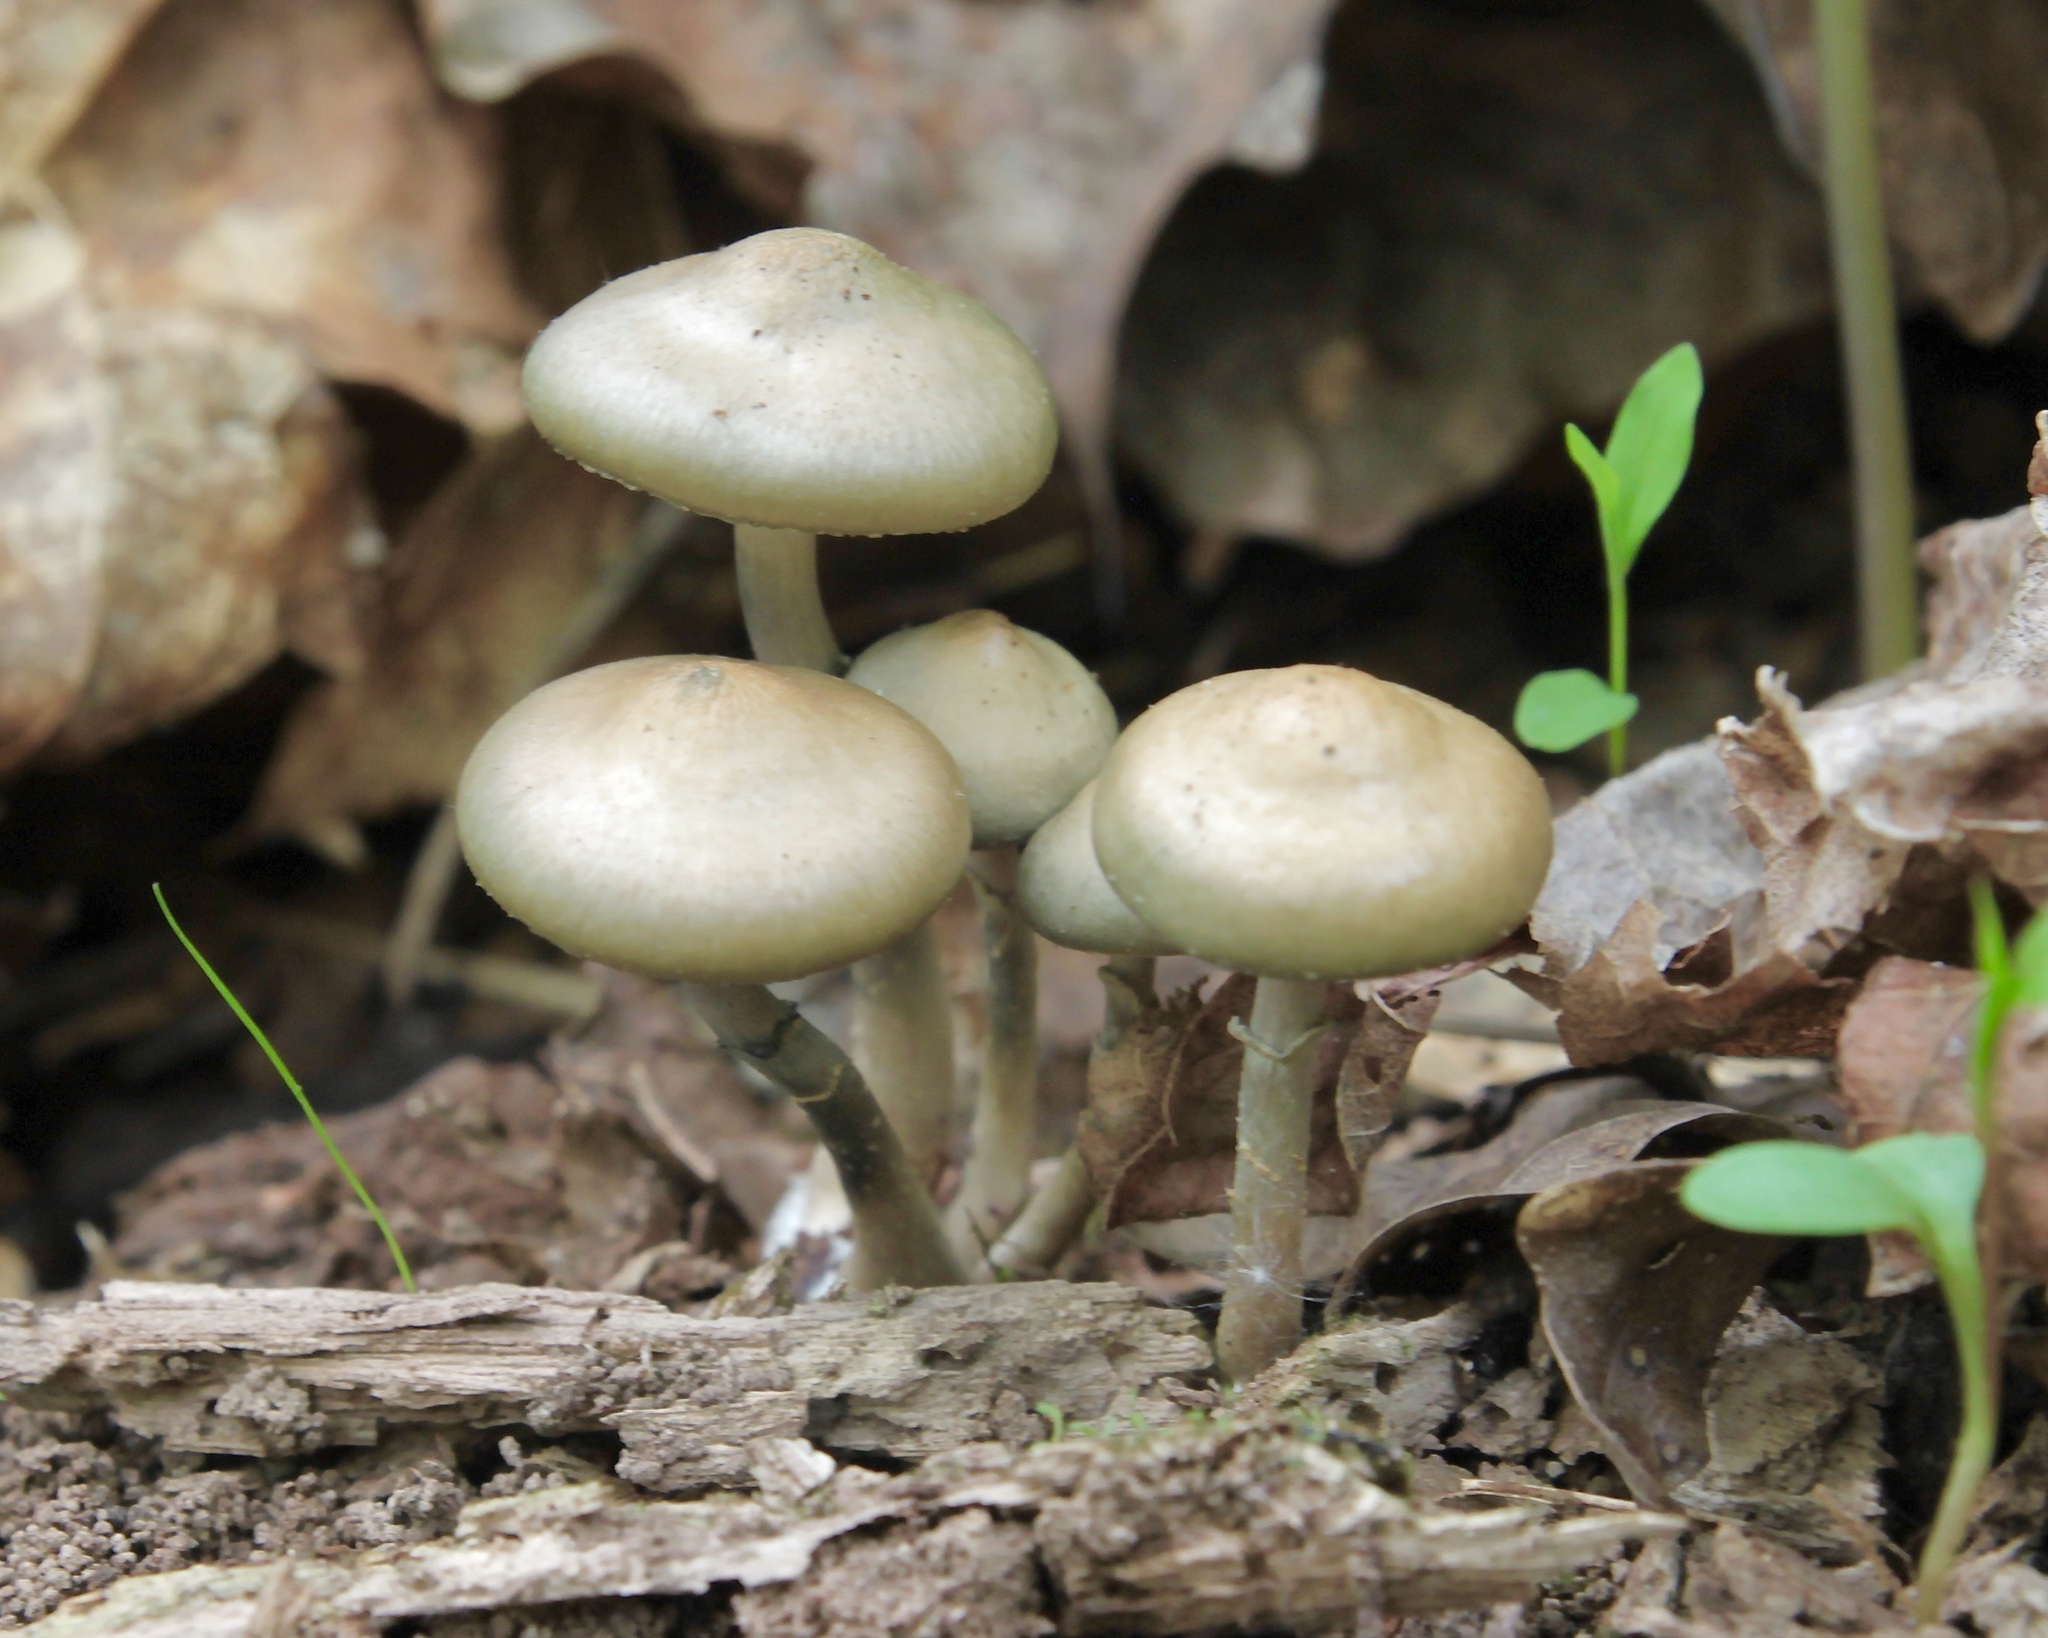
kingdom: Fungi
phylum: Basidiomycota
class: Agaricomycetes
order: Agaricales
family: Hymenogastraceae
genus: Psilocybe
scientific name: Psilocybe ovoideocystidiata
